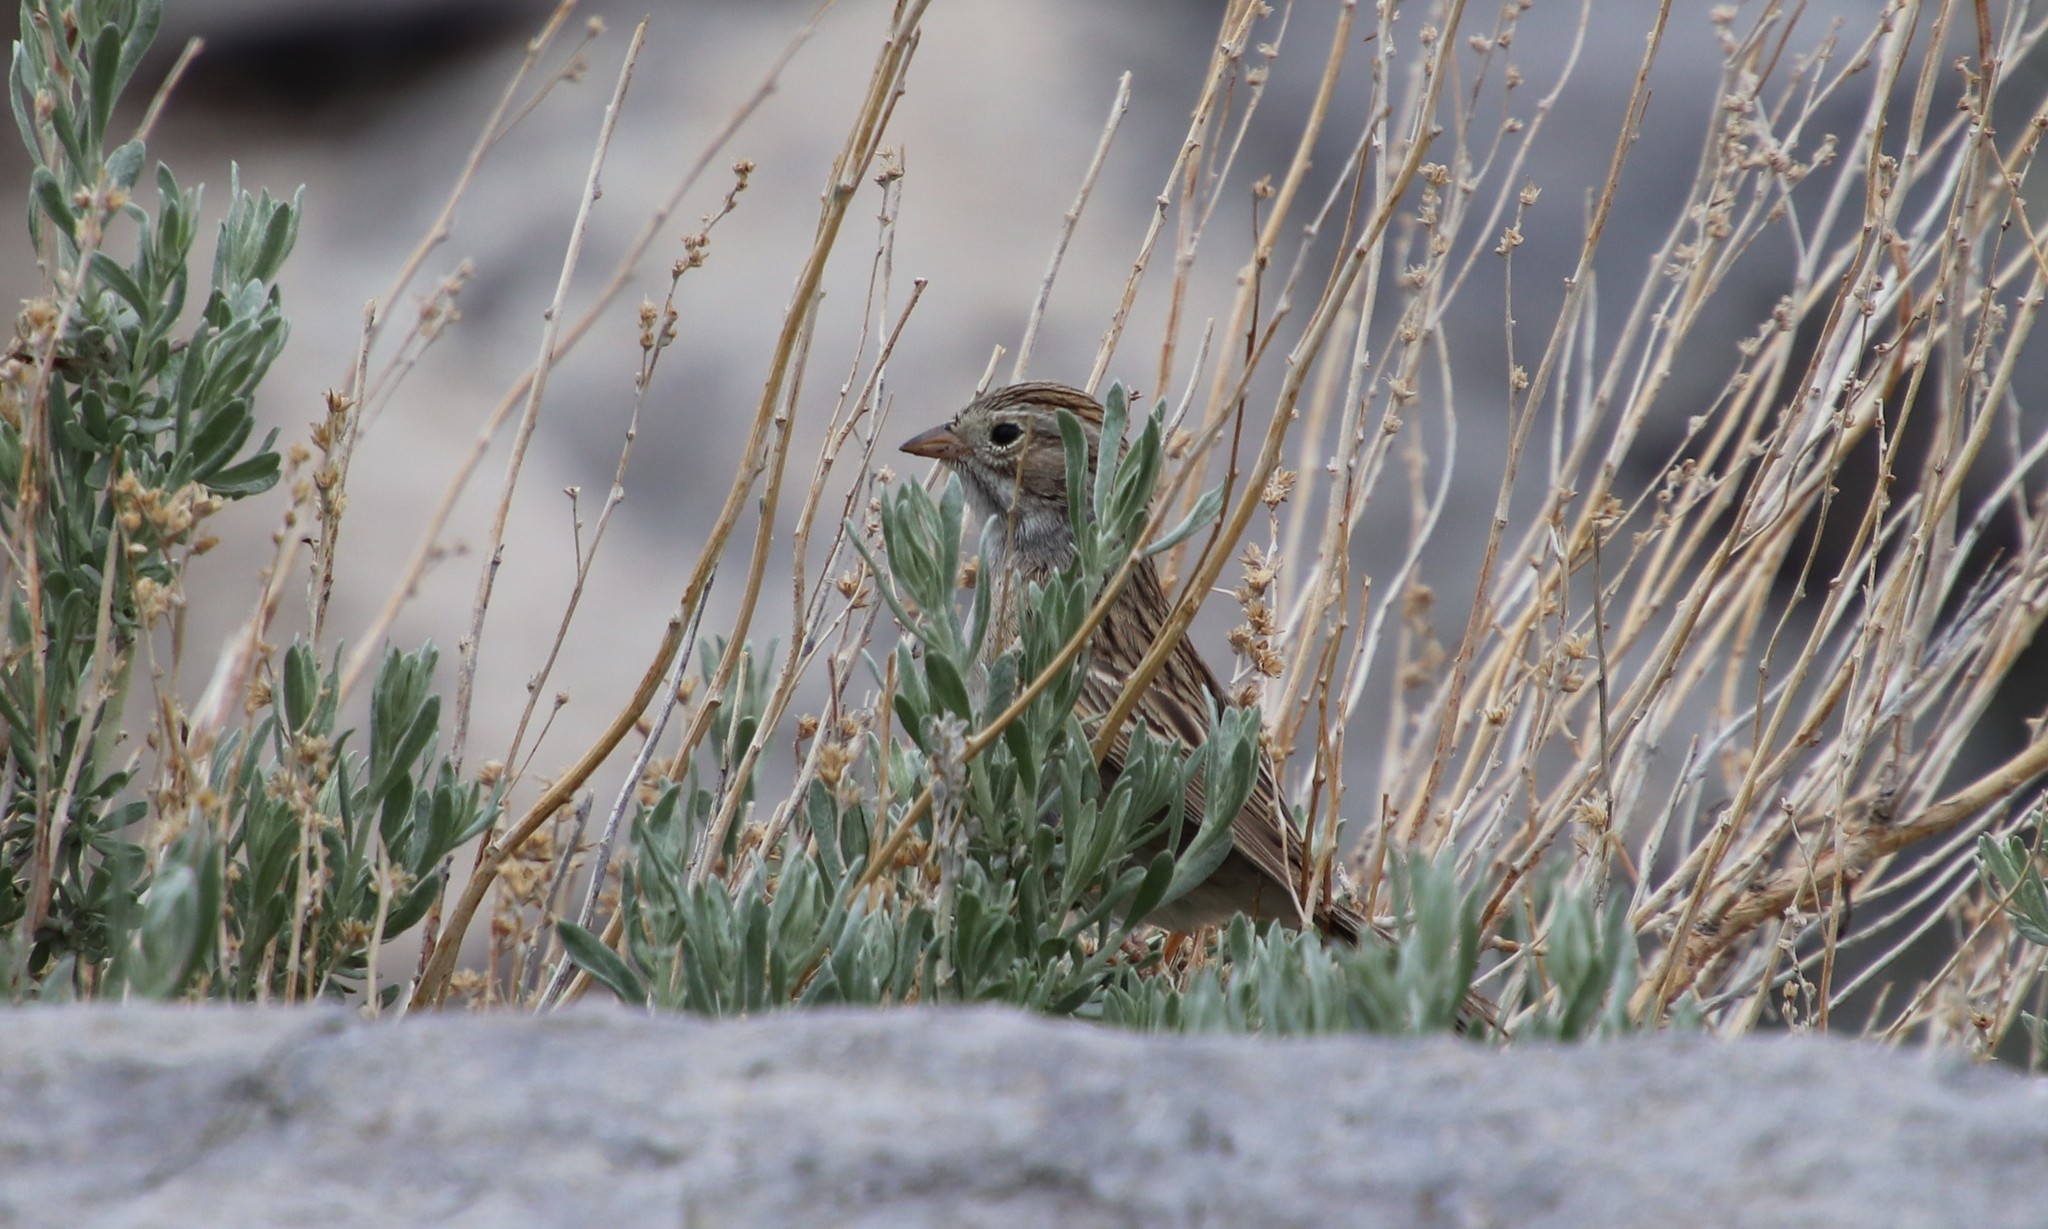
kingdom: Animalia
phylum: Chordata
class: Aves
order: Passeriformes
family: Passerellidae
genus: Spizella
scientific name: Spizella breweri
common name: Brewer's sparrow
